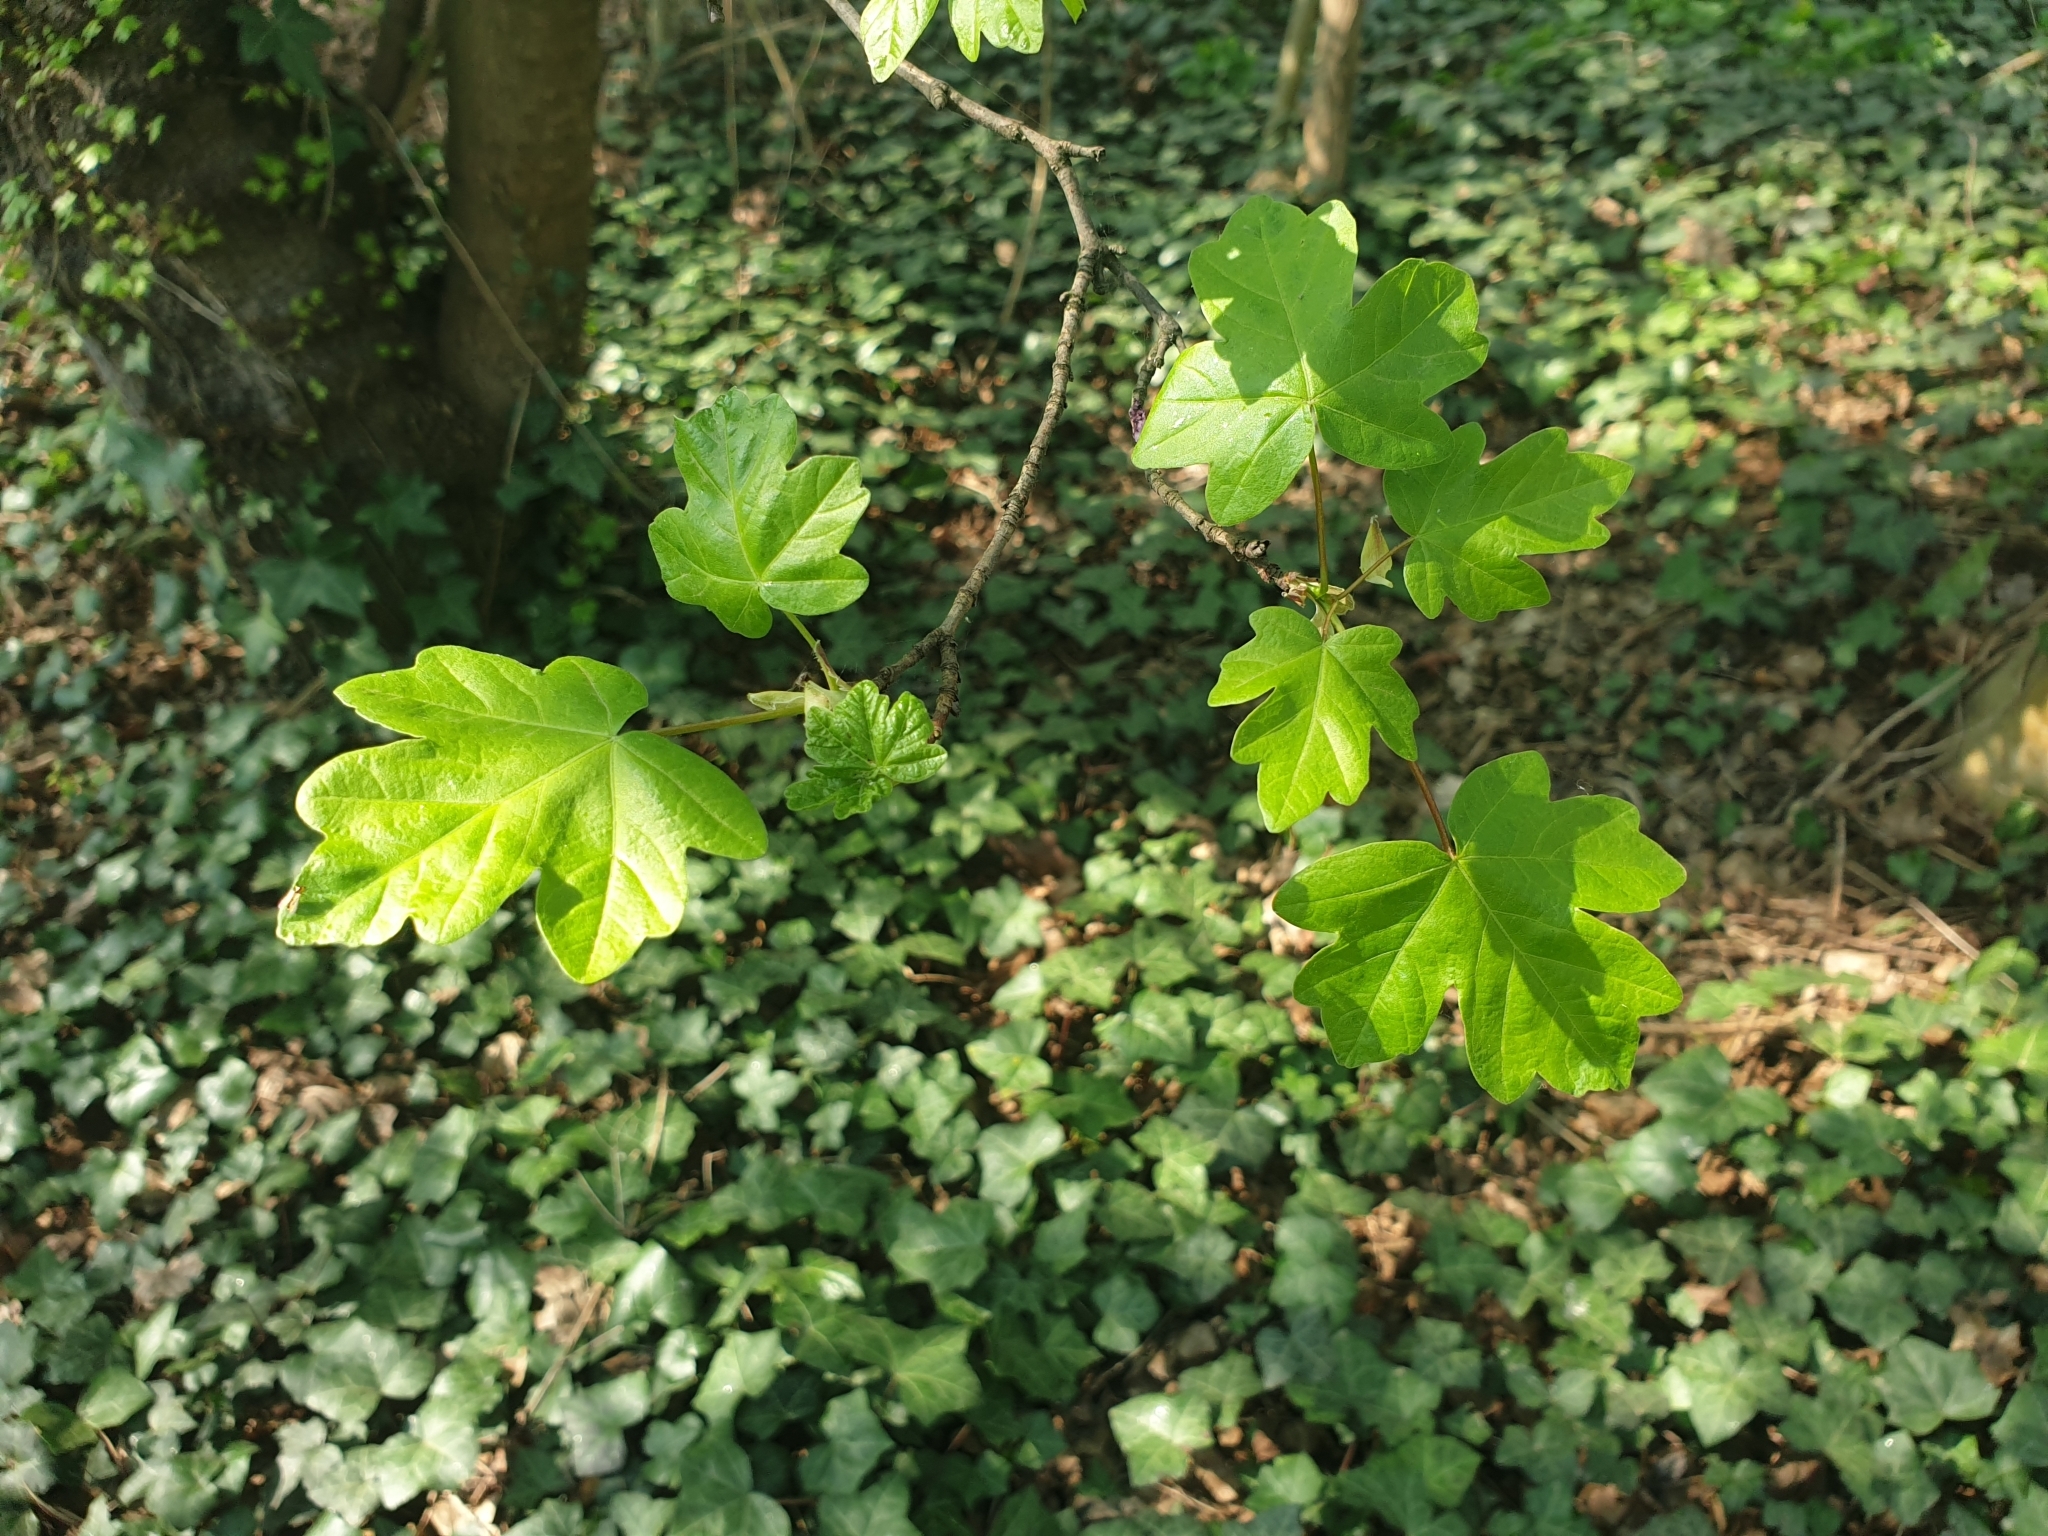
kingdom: Plantae
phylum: Tracheophyta
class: Magnoliopsida
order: Sapindales
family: Sapindaceae
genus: Acer
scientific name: Acer campestre
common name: Field maple
